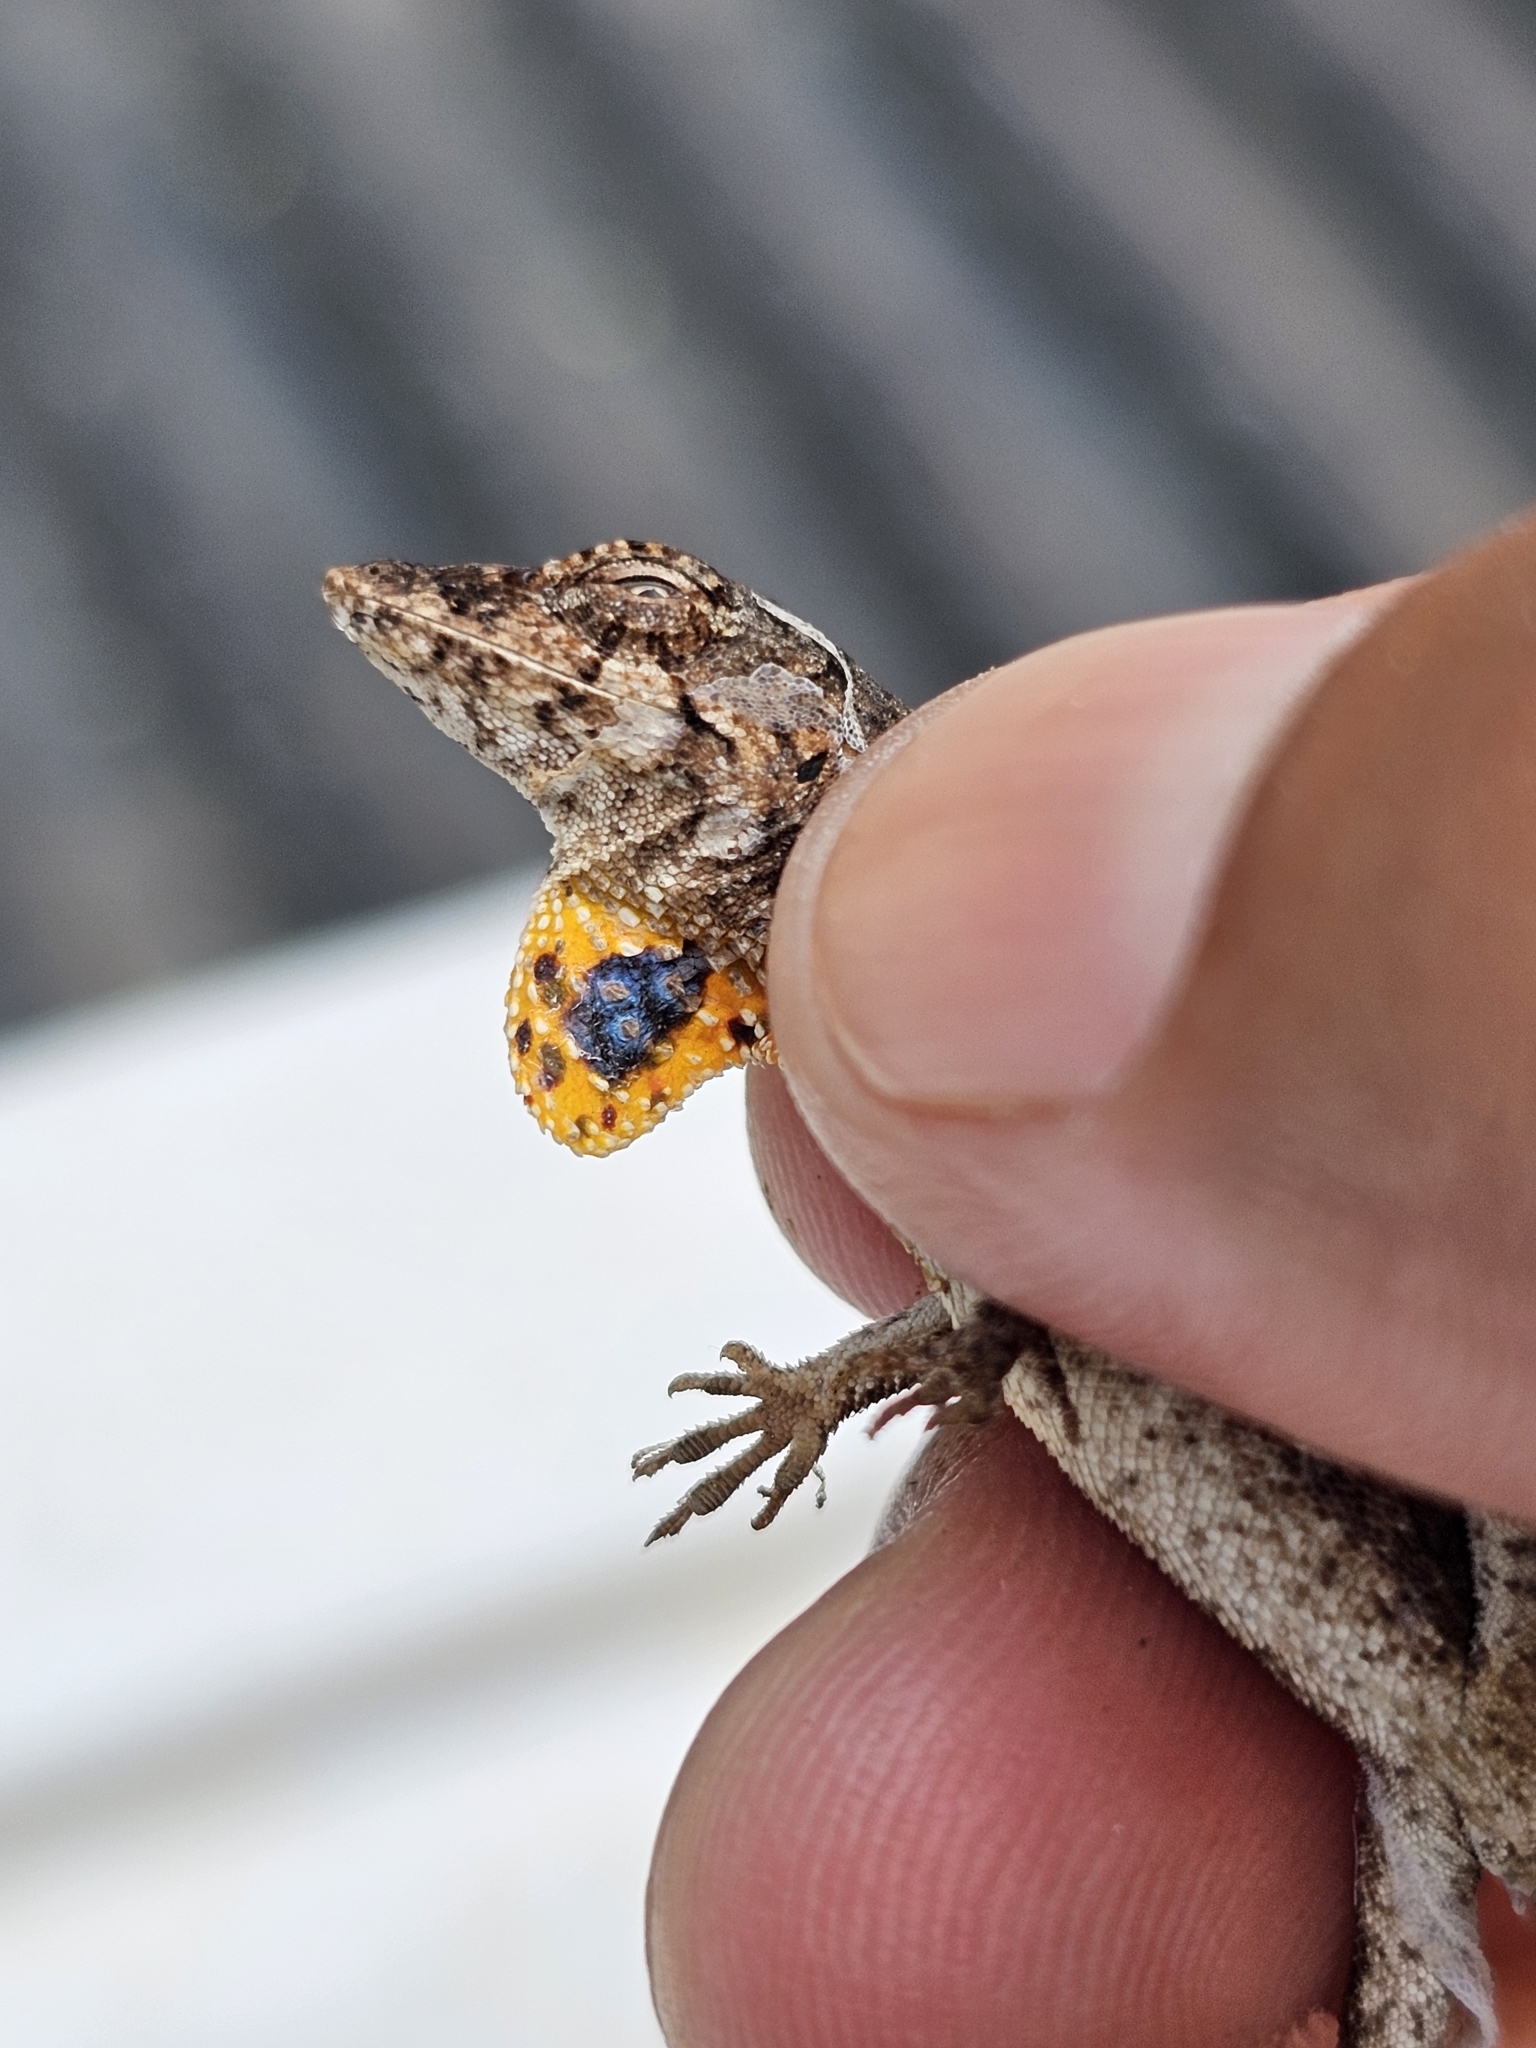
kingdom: Animalia
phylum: Chordata
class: Squamata
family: Dactyloidae
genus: Anolis
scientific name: Anolis ustus
